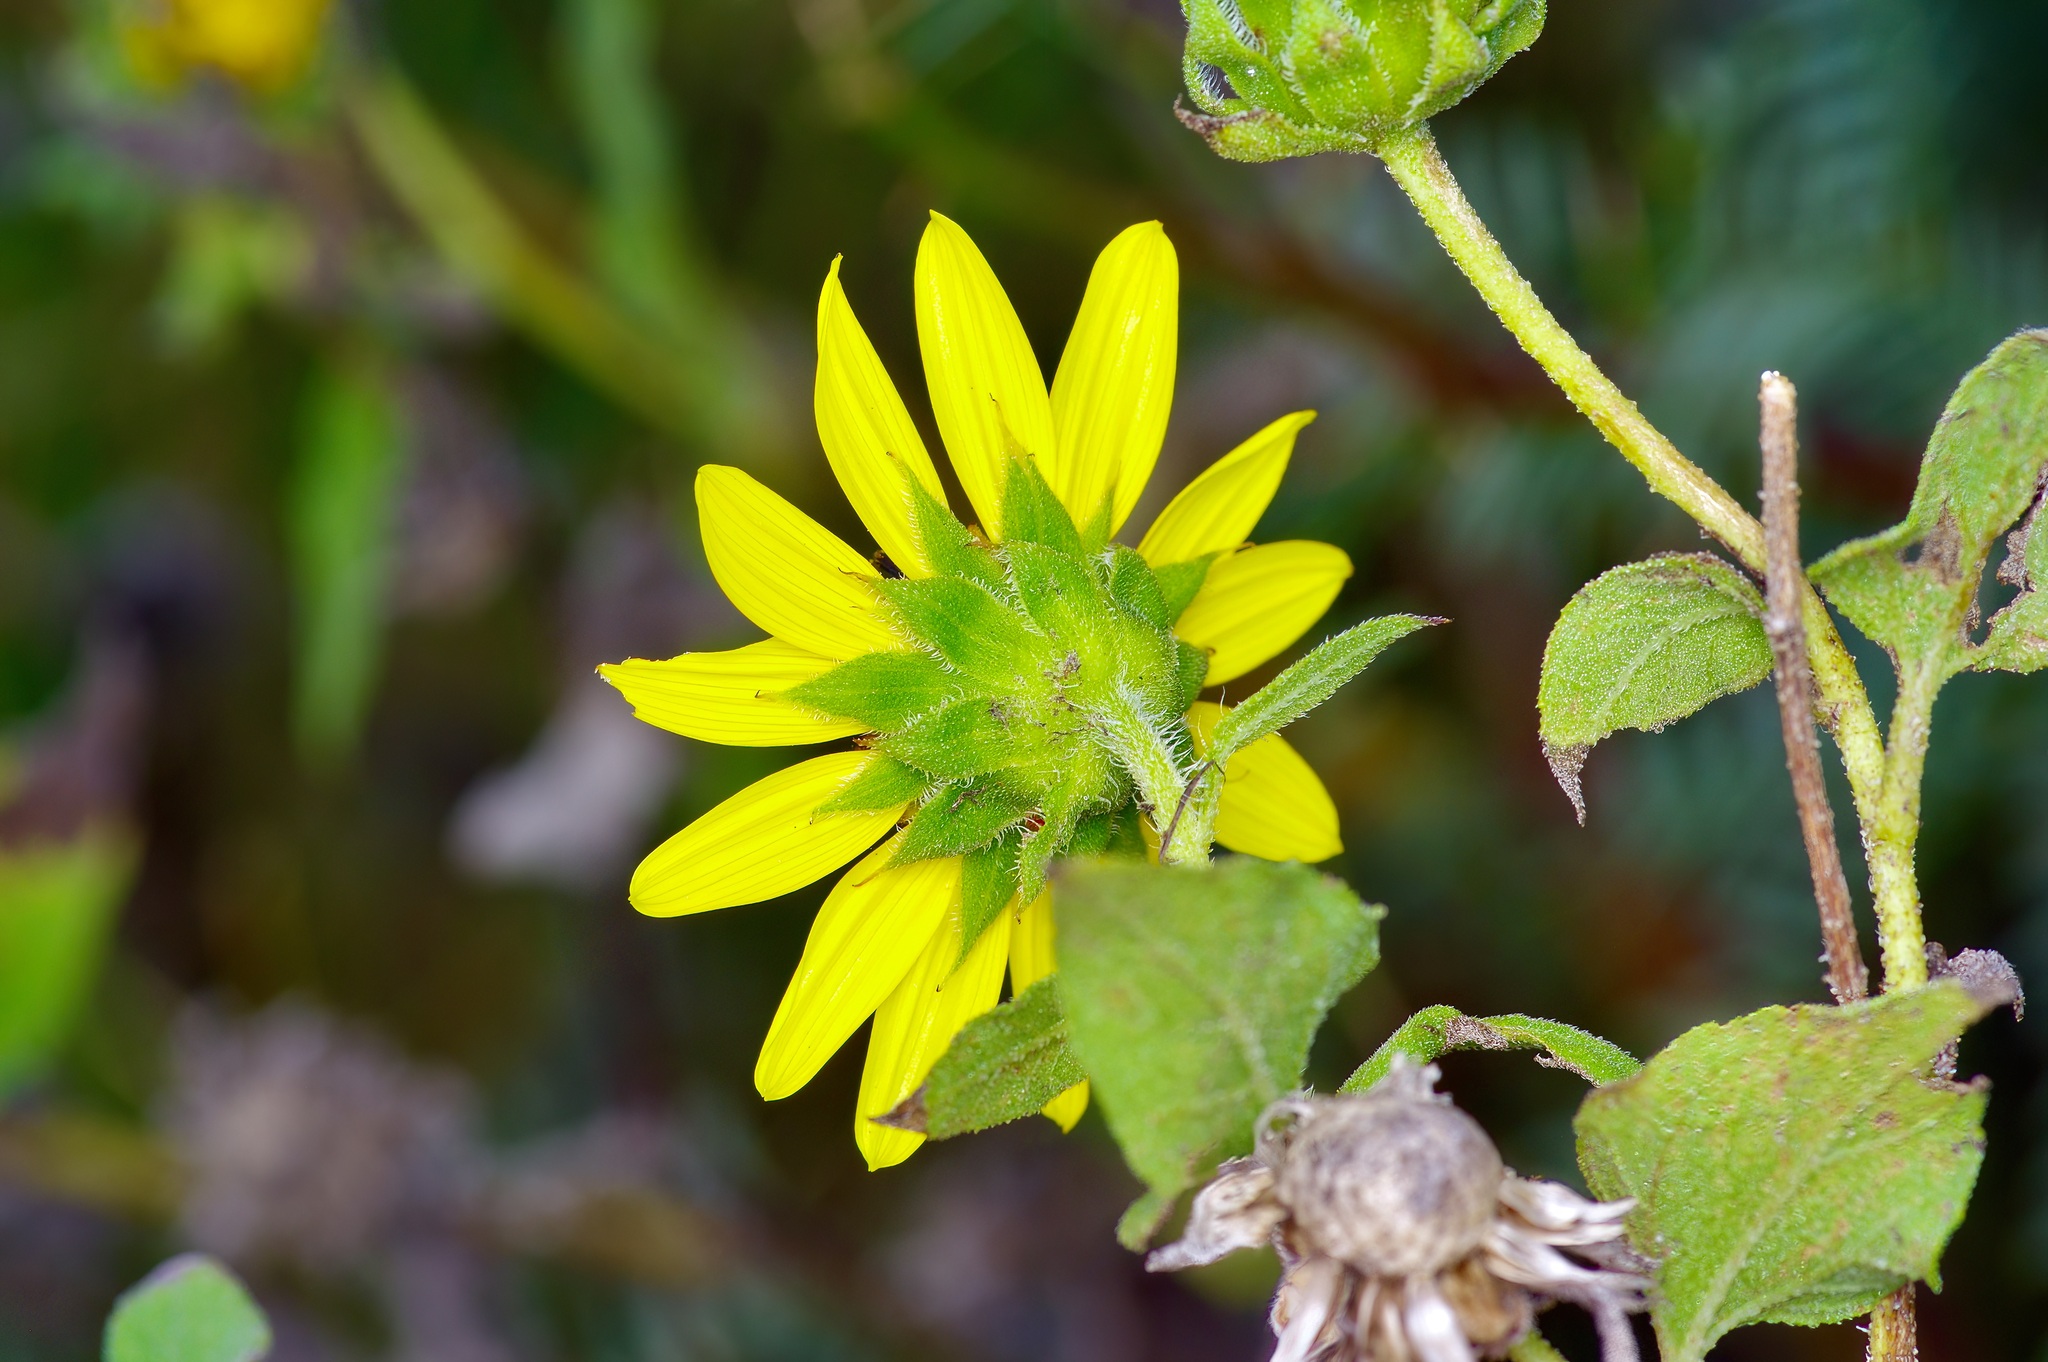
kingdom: Plantae
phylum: Tracheophyta
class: Magnoliopsida
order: Asterales
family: Asteraceae
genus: Helianthus
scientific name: Helianthus annuus
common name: Sunflower
